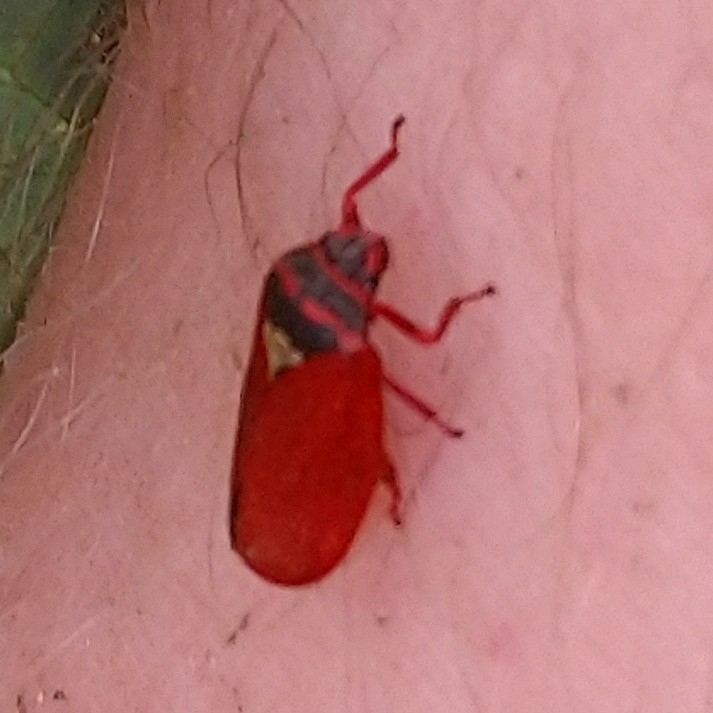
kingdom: Animalia
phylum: Arthropoda
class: Insecta
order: Hemiptera
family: Cercopidae
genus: Locris
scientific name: Locris transversa
